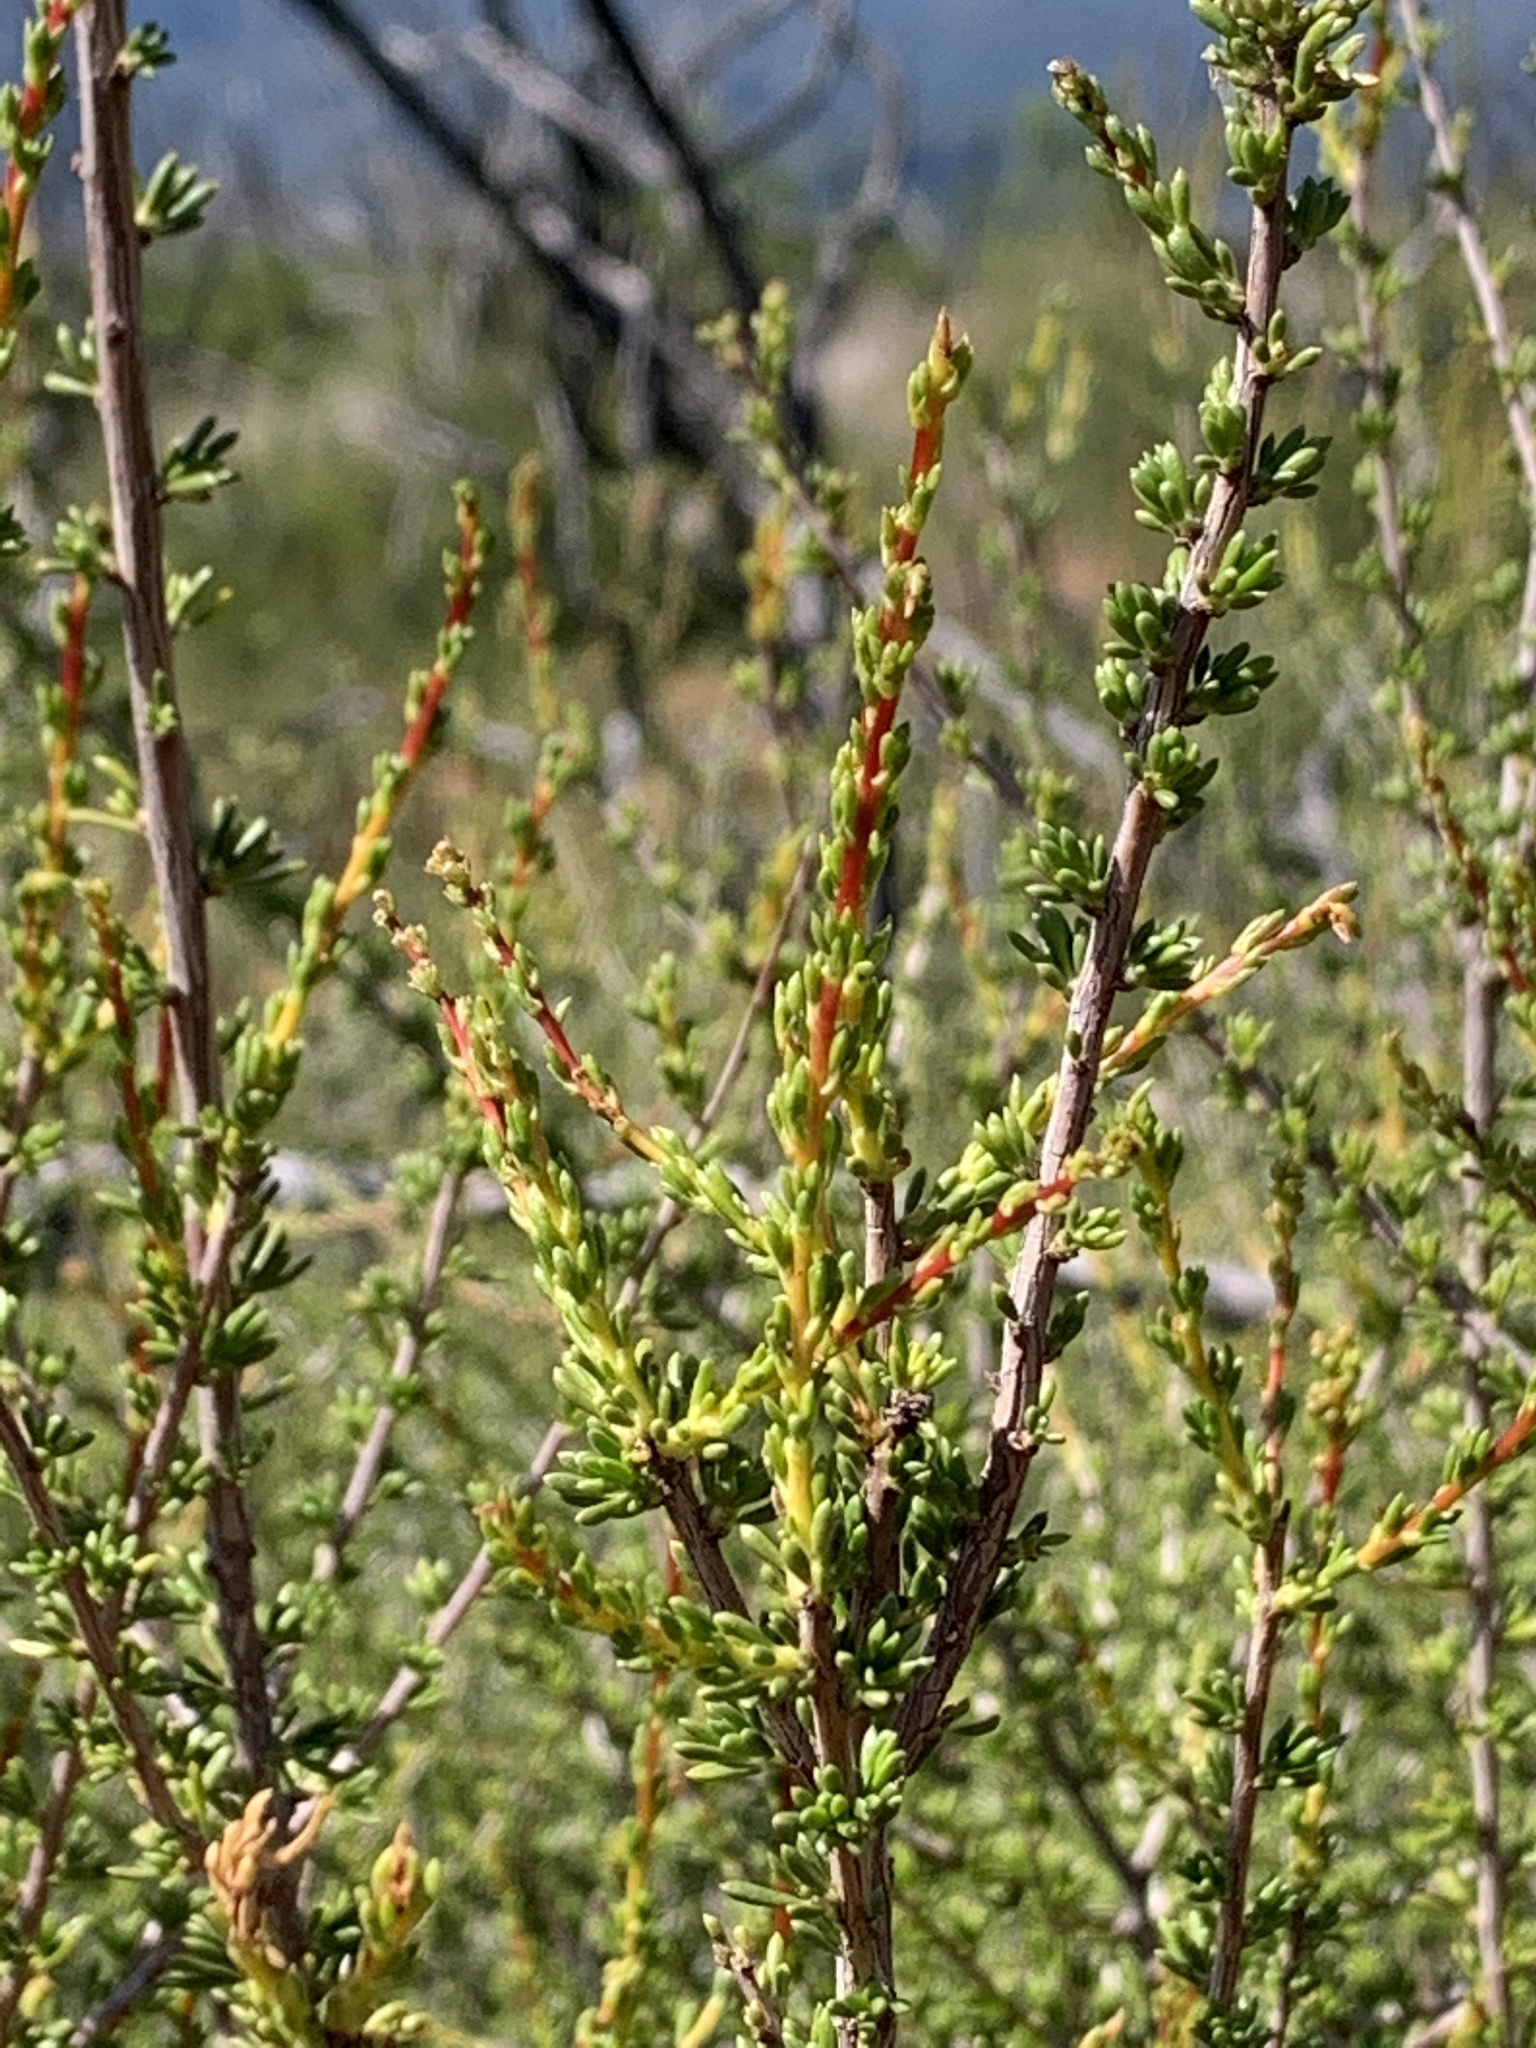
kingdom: Plantae
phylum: Tracheophyta
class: Magnoliopsida
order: Rosales
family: Rosaceae
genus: Adenostoma
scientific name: Adenostoma fasciculatum
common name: Chamise
